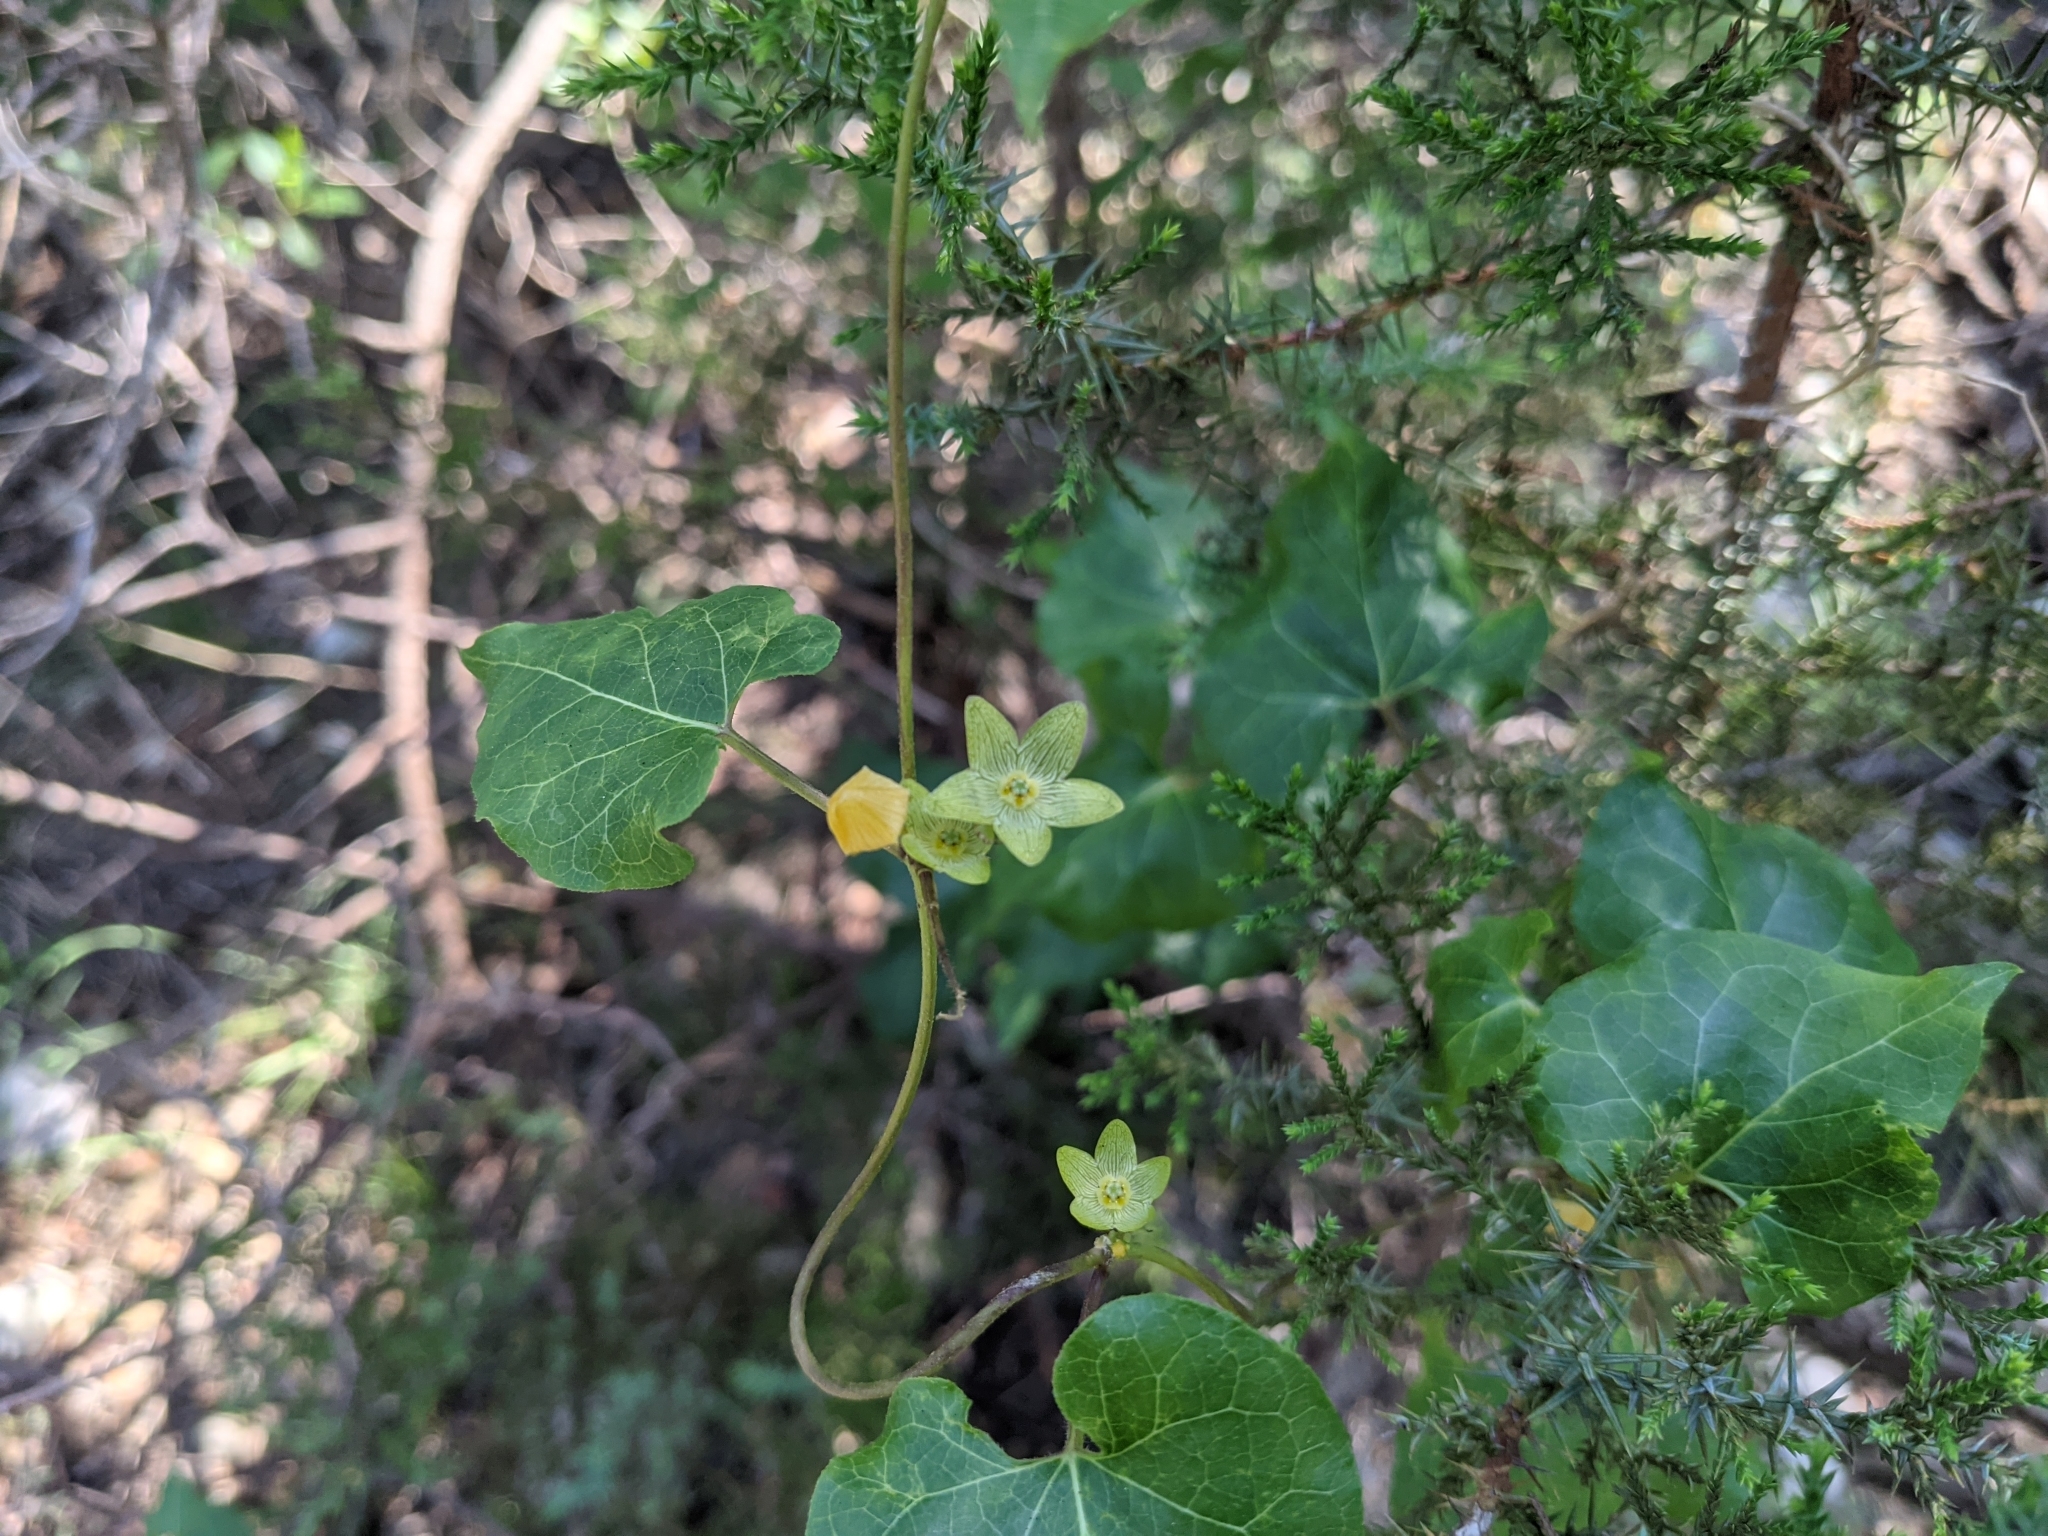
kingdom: Plantae
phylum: Tracheophyta
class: Magnoliopsida
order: Gentianales
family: Apocynaceae
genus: Matelea
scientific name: Matelea edwardsensis
